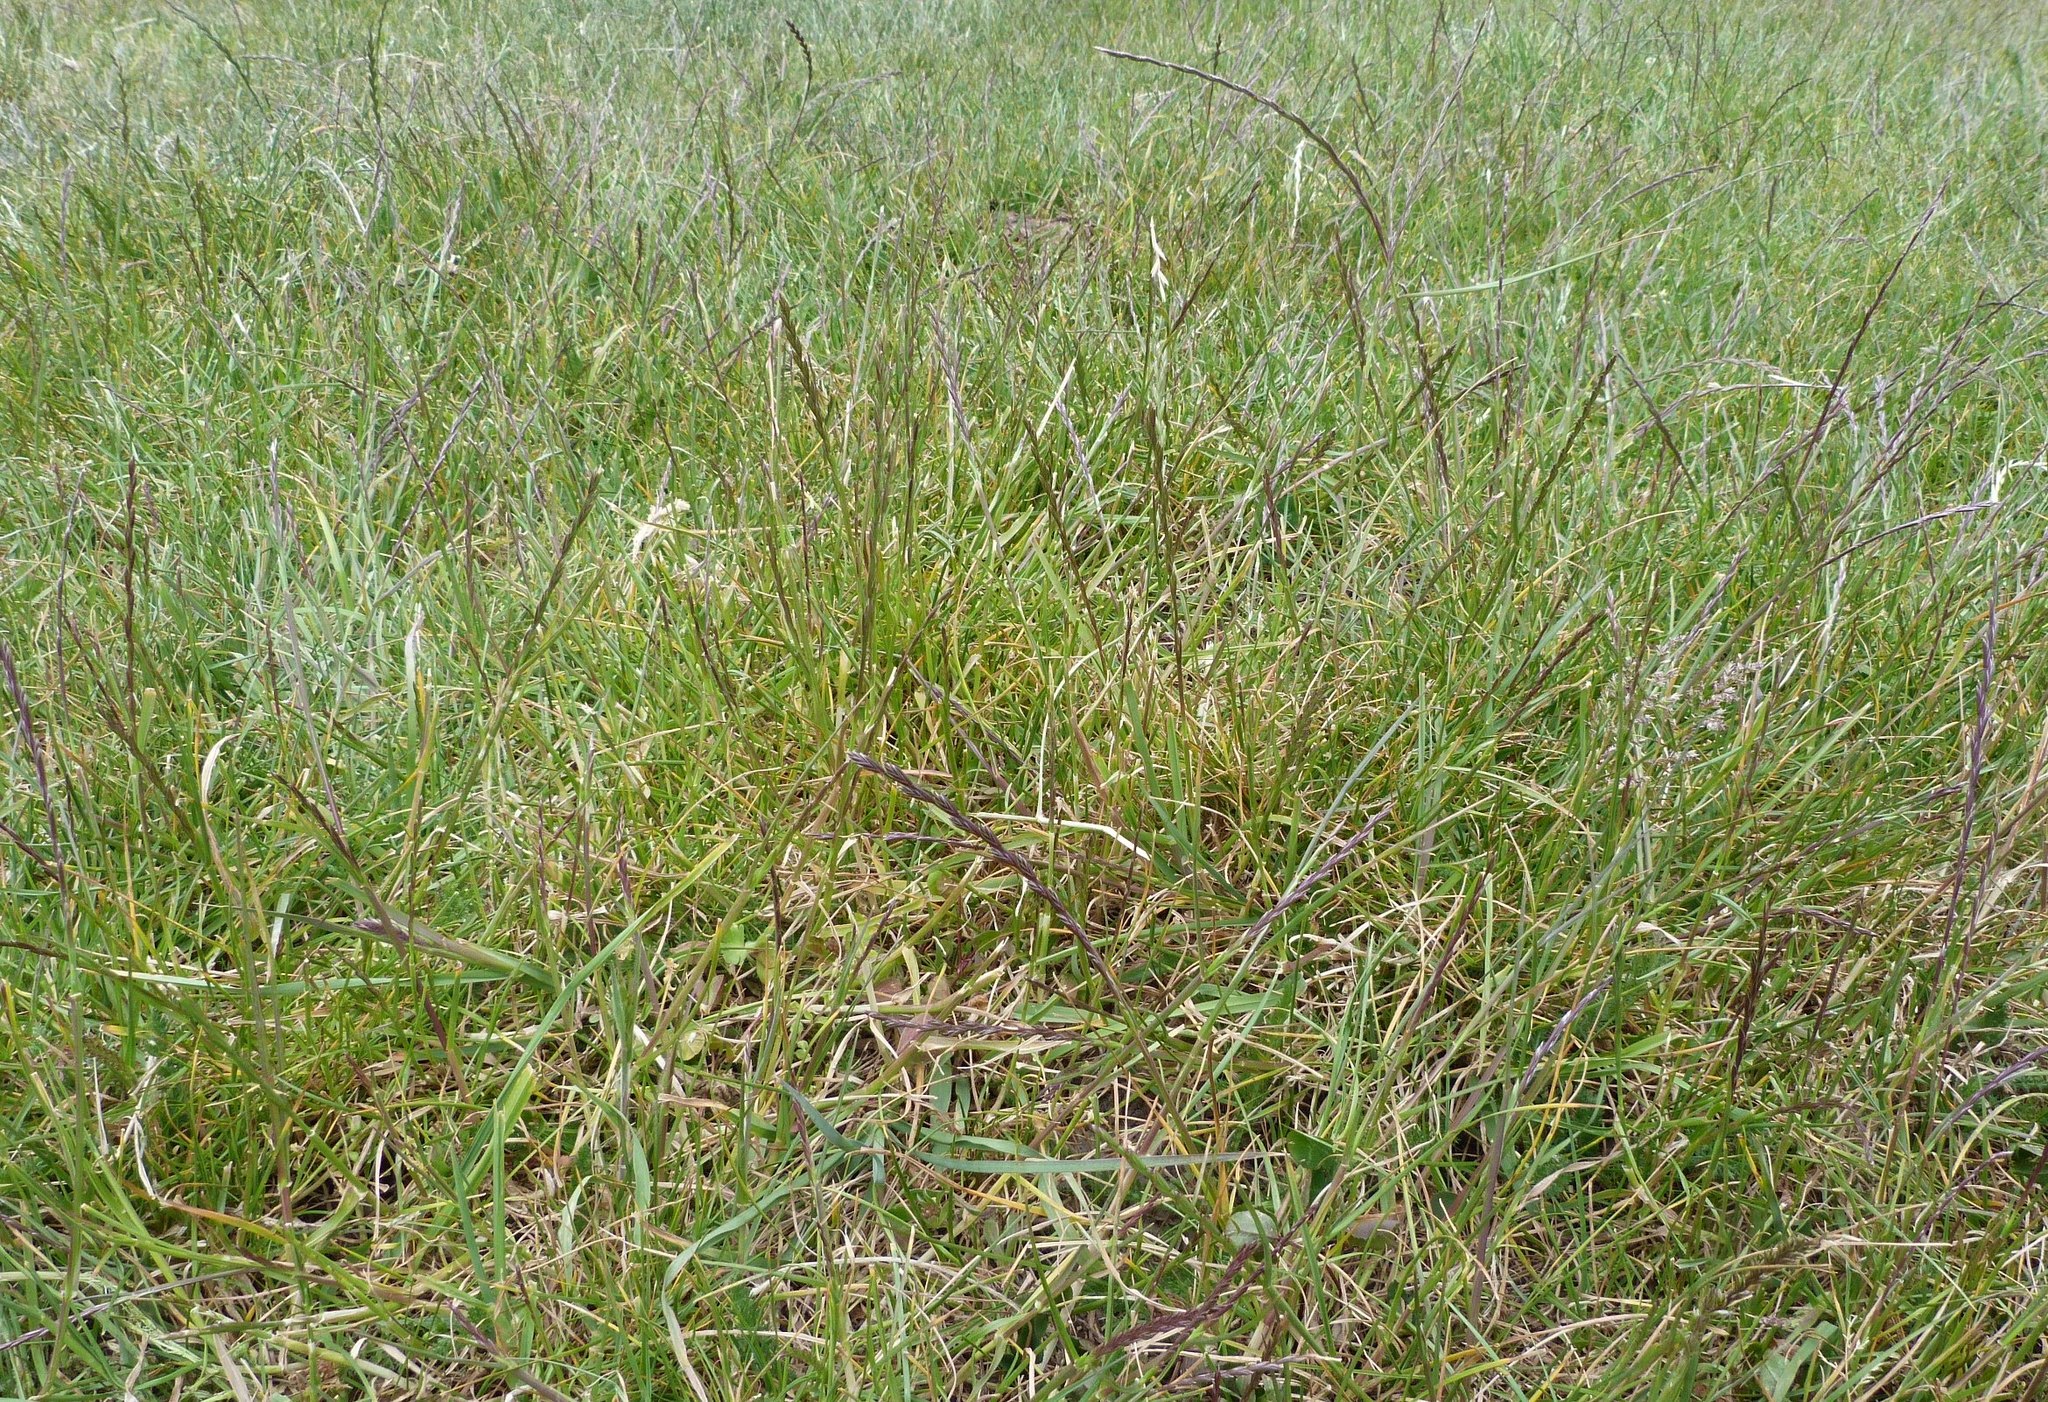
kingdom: Plantae
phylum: Tracheophyta
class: Liliopsida
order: Poales
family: Poaceae
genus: Lolium
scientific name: Lolium perenne
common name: Perennial ryegrass
